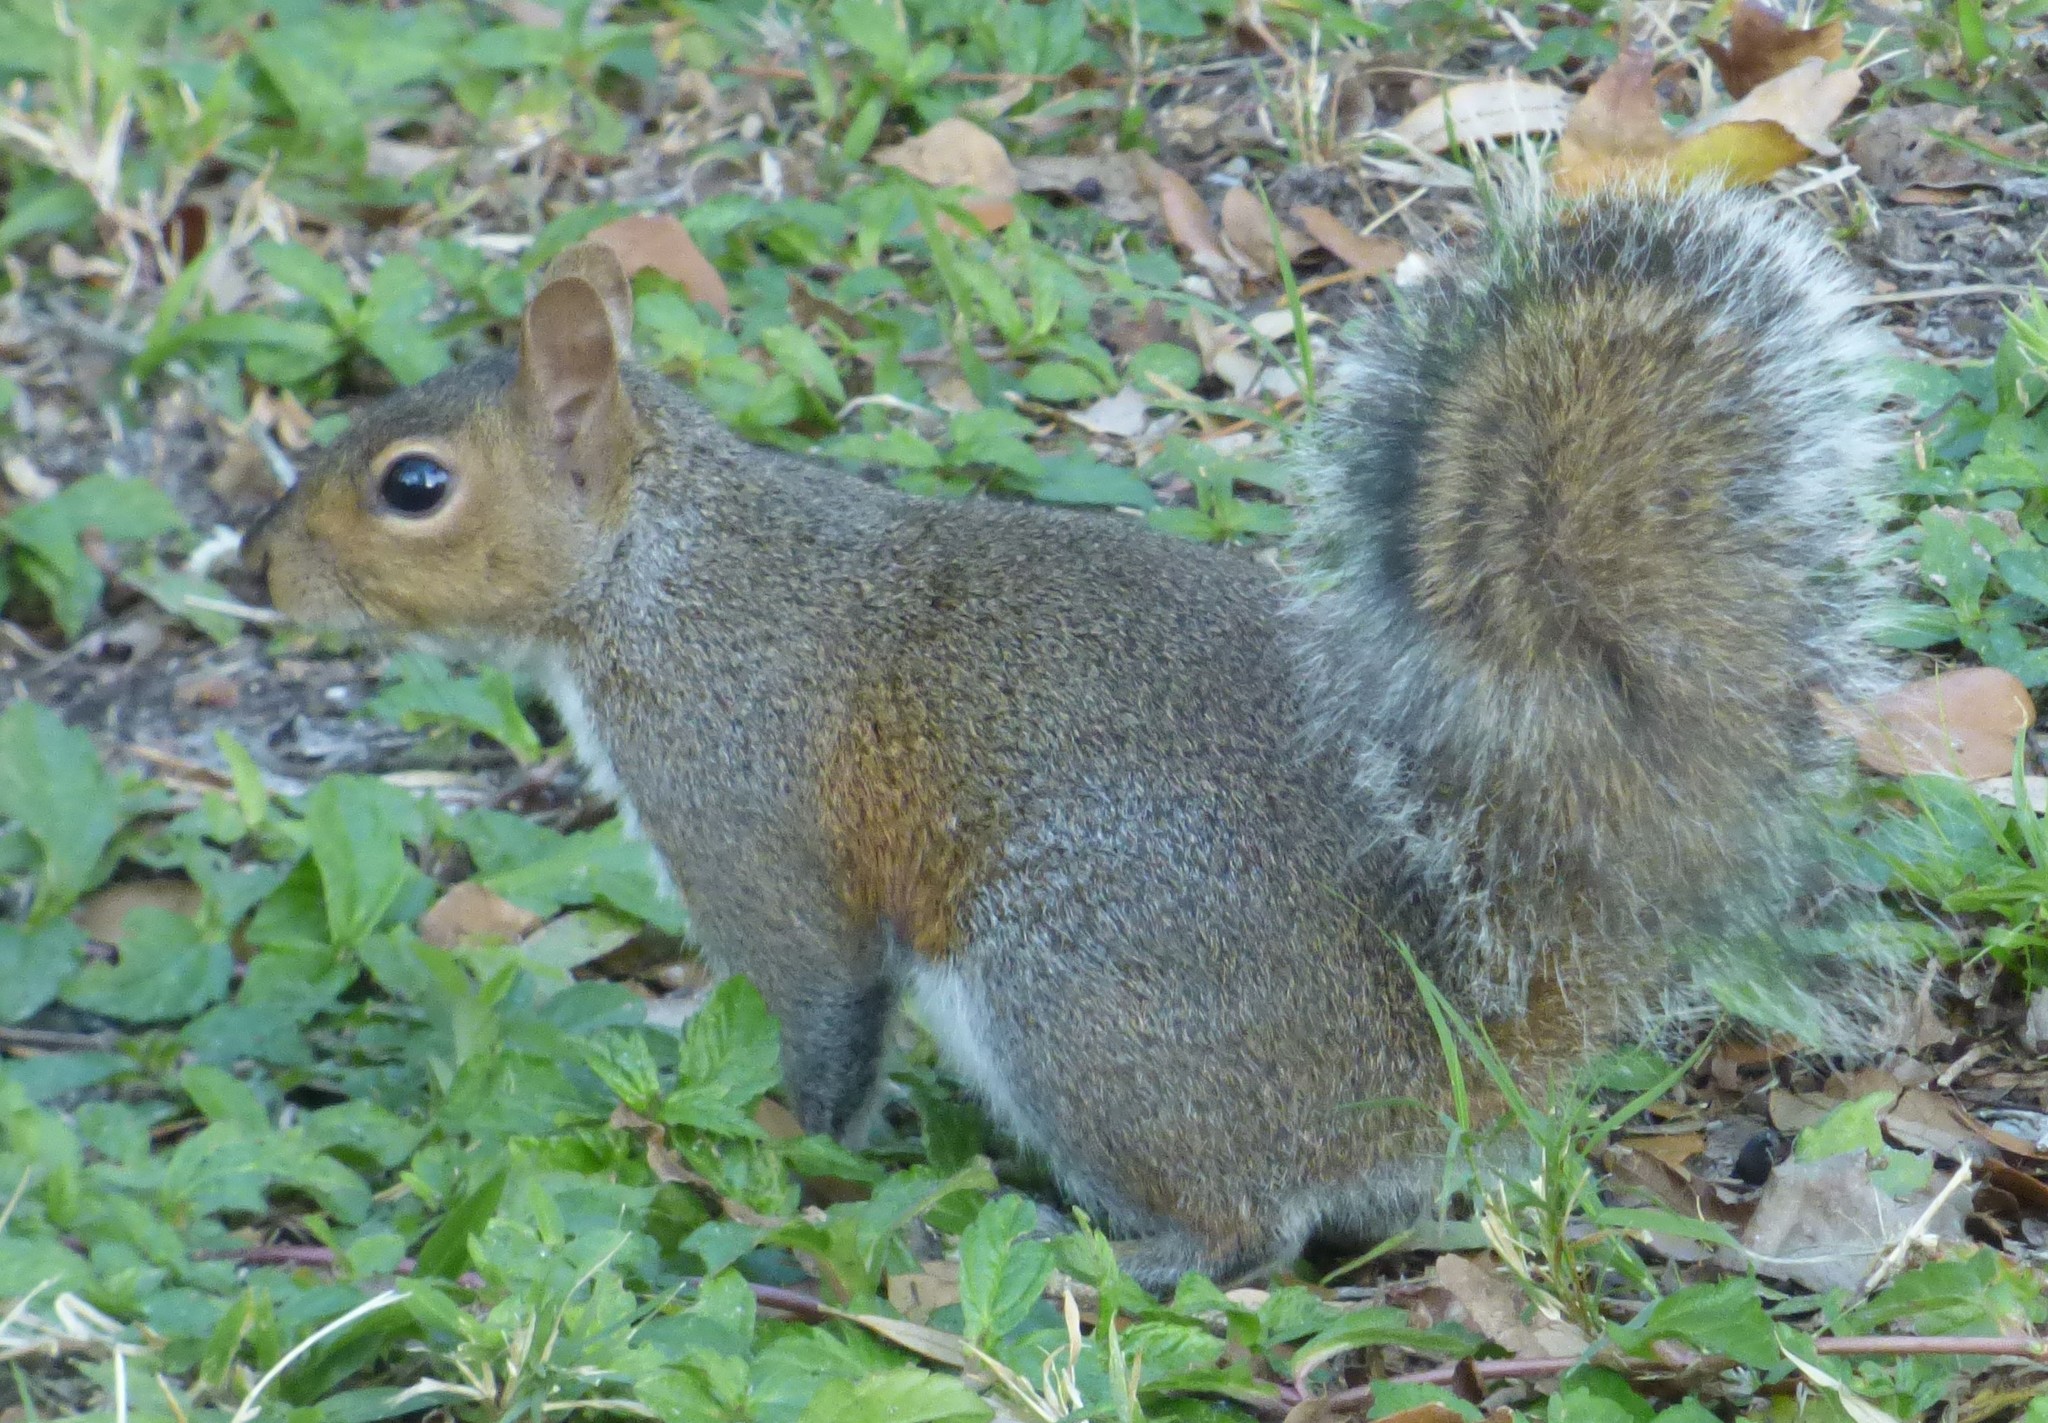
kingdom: Animalia
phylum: Chordata
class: Mammalia
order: Rodentia
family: Sciuridae
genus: Sciurus
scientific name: Sciurus carolinensis
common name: Eastern gray squirrel
